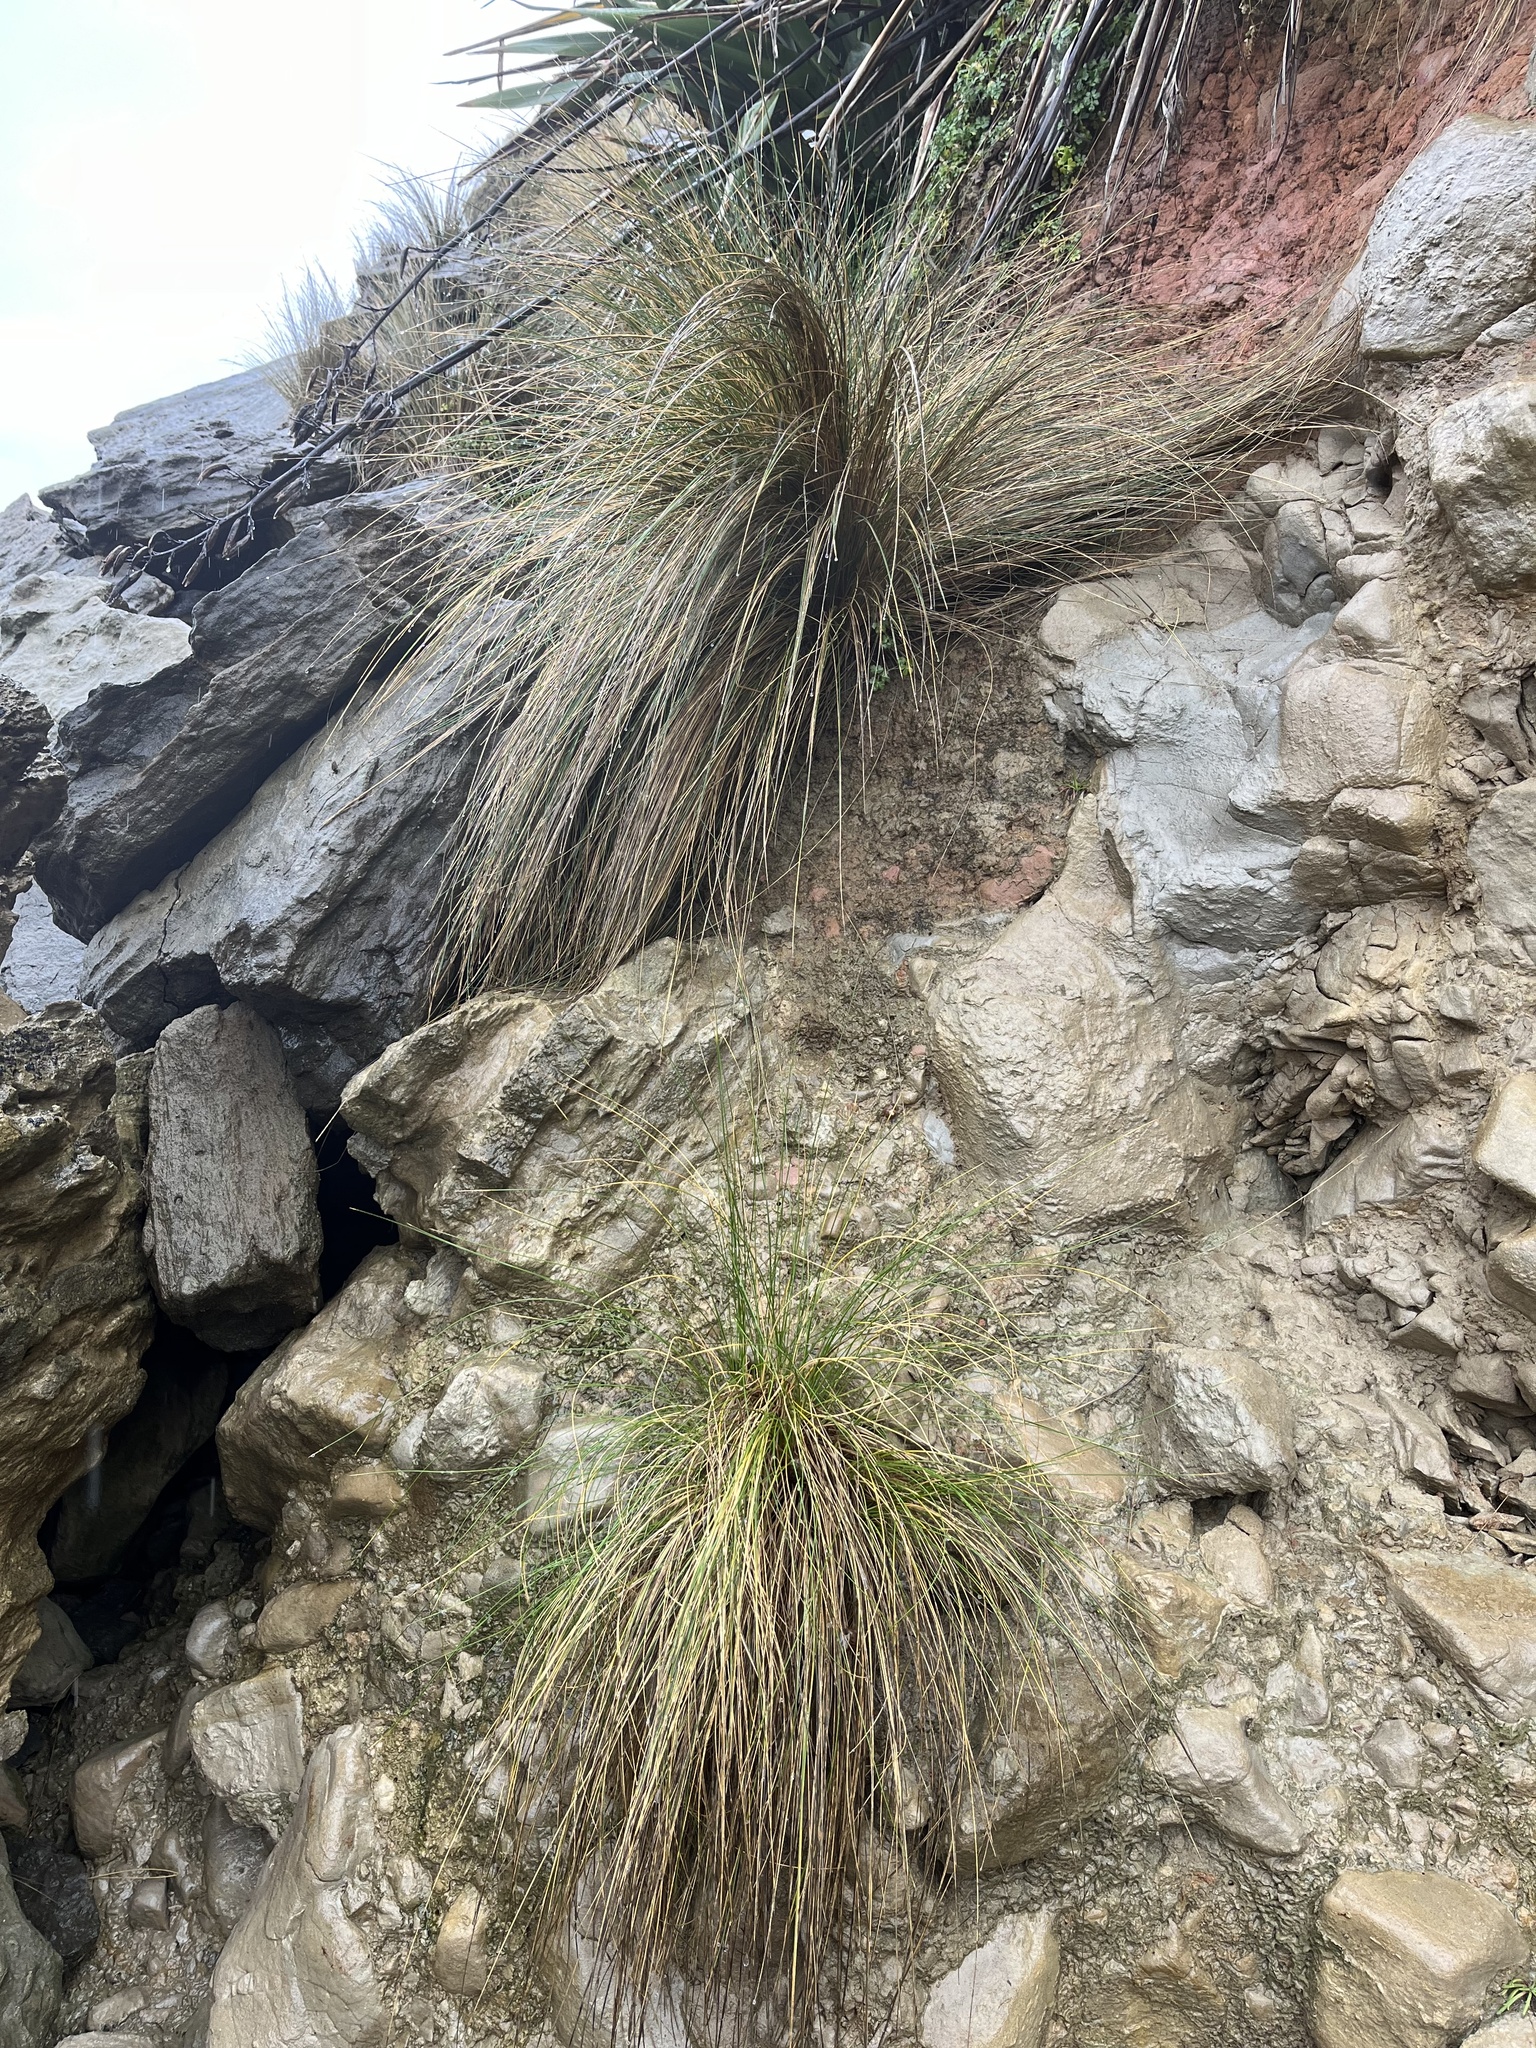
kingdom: Plantae
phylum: Tracheophyta
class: Liliopsida
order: Poales
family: Poaceae
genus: Poa
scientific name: Poa cita
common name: Silver tussock
